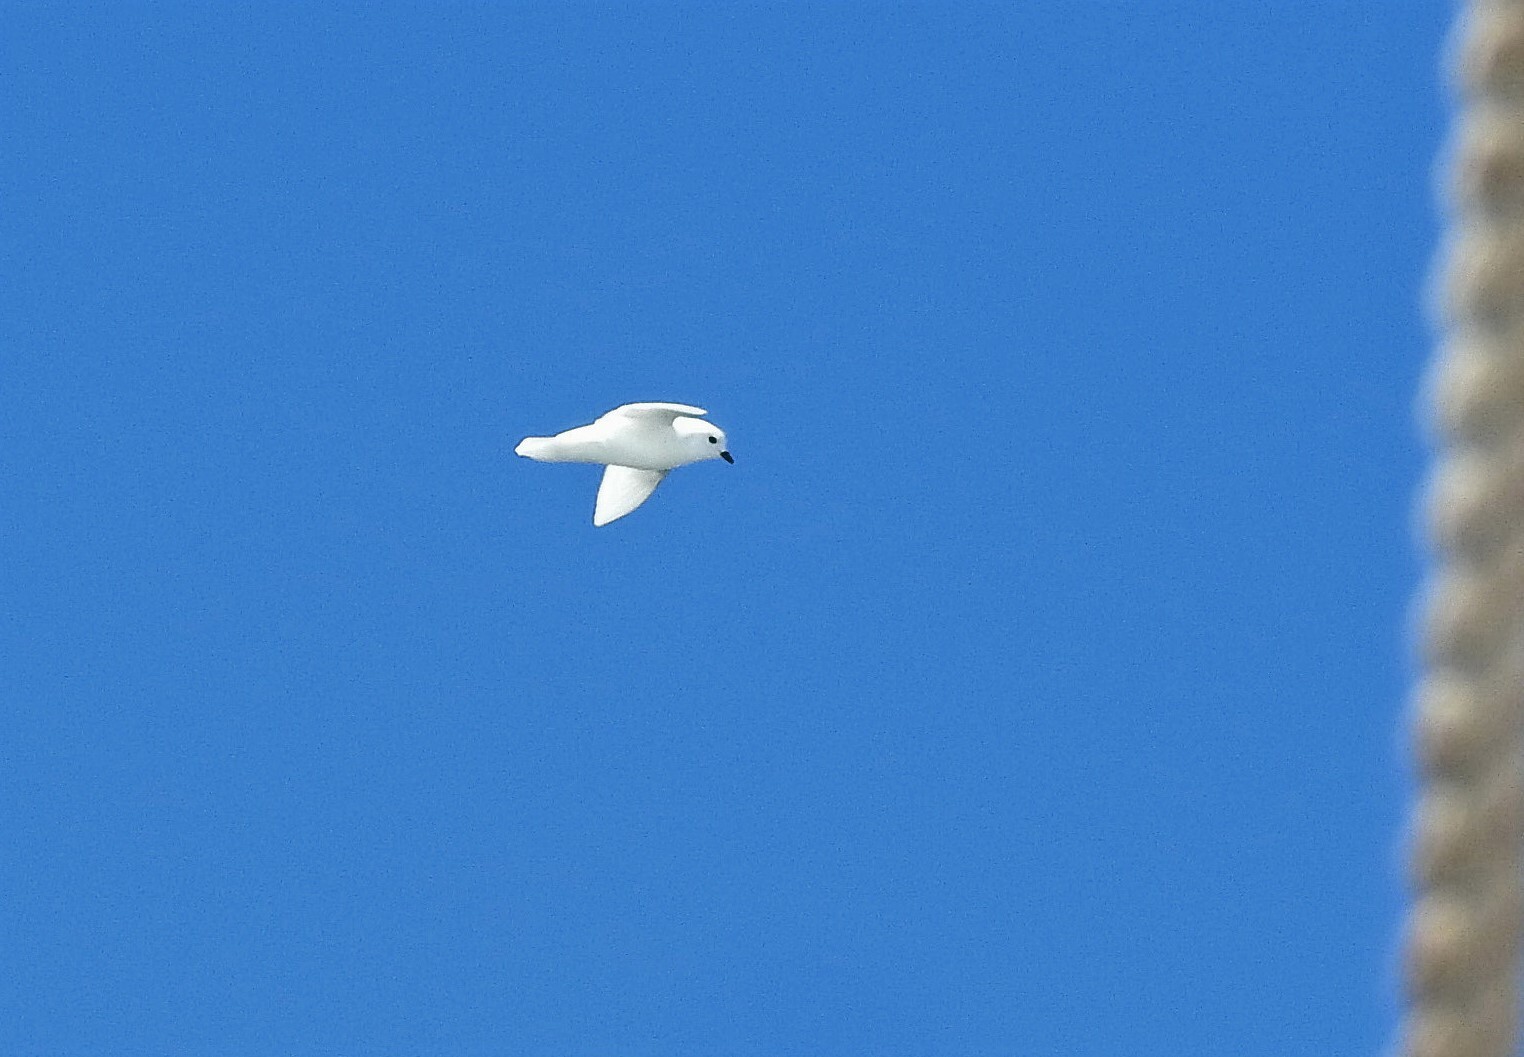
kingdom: Animalia
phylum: Chordata
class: Aves
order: Procellariiformes
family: Procellariidae
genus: Pagodroma
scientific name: Pagodroma nivea
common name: Snow petrel
